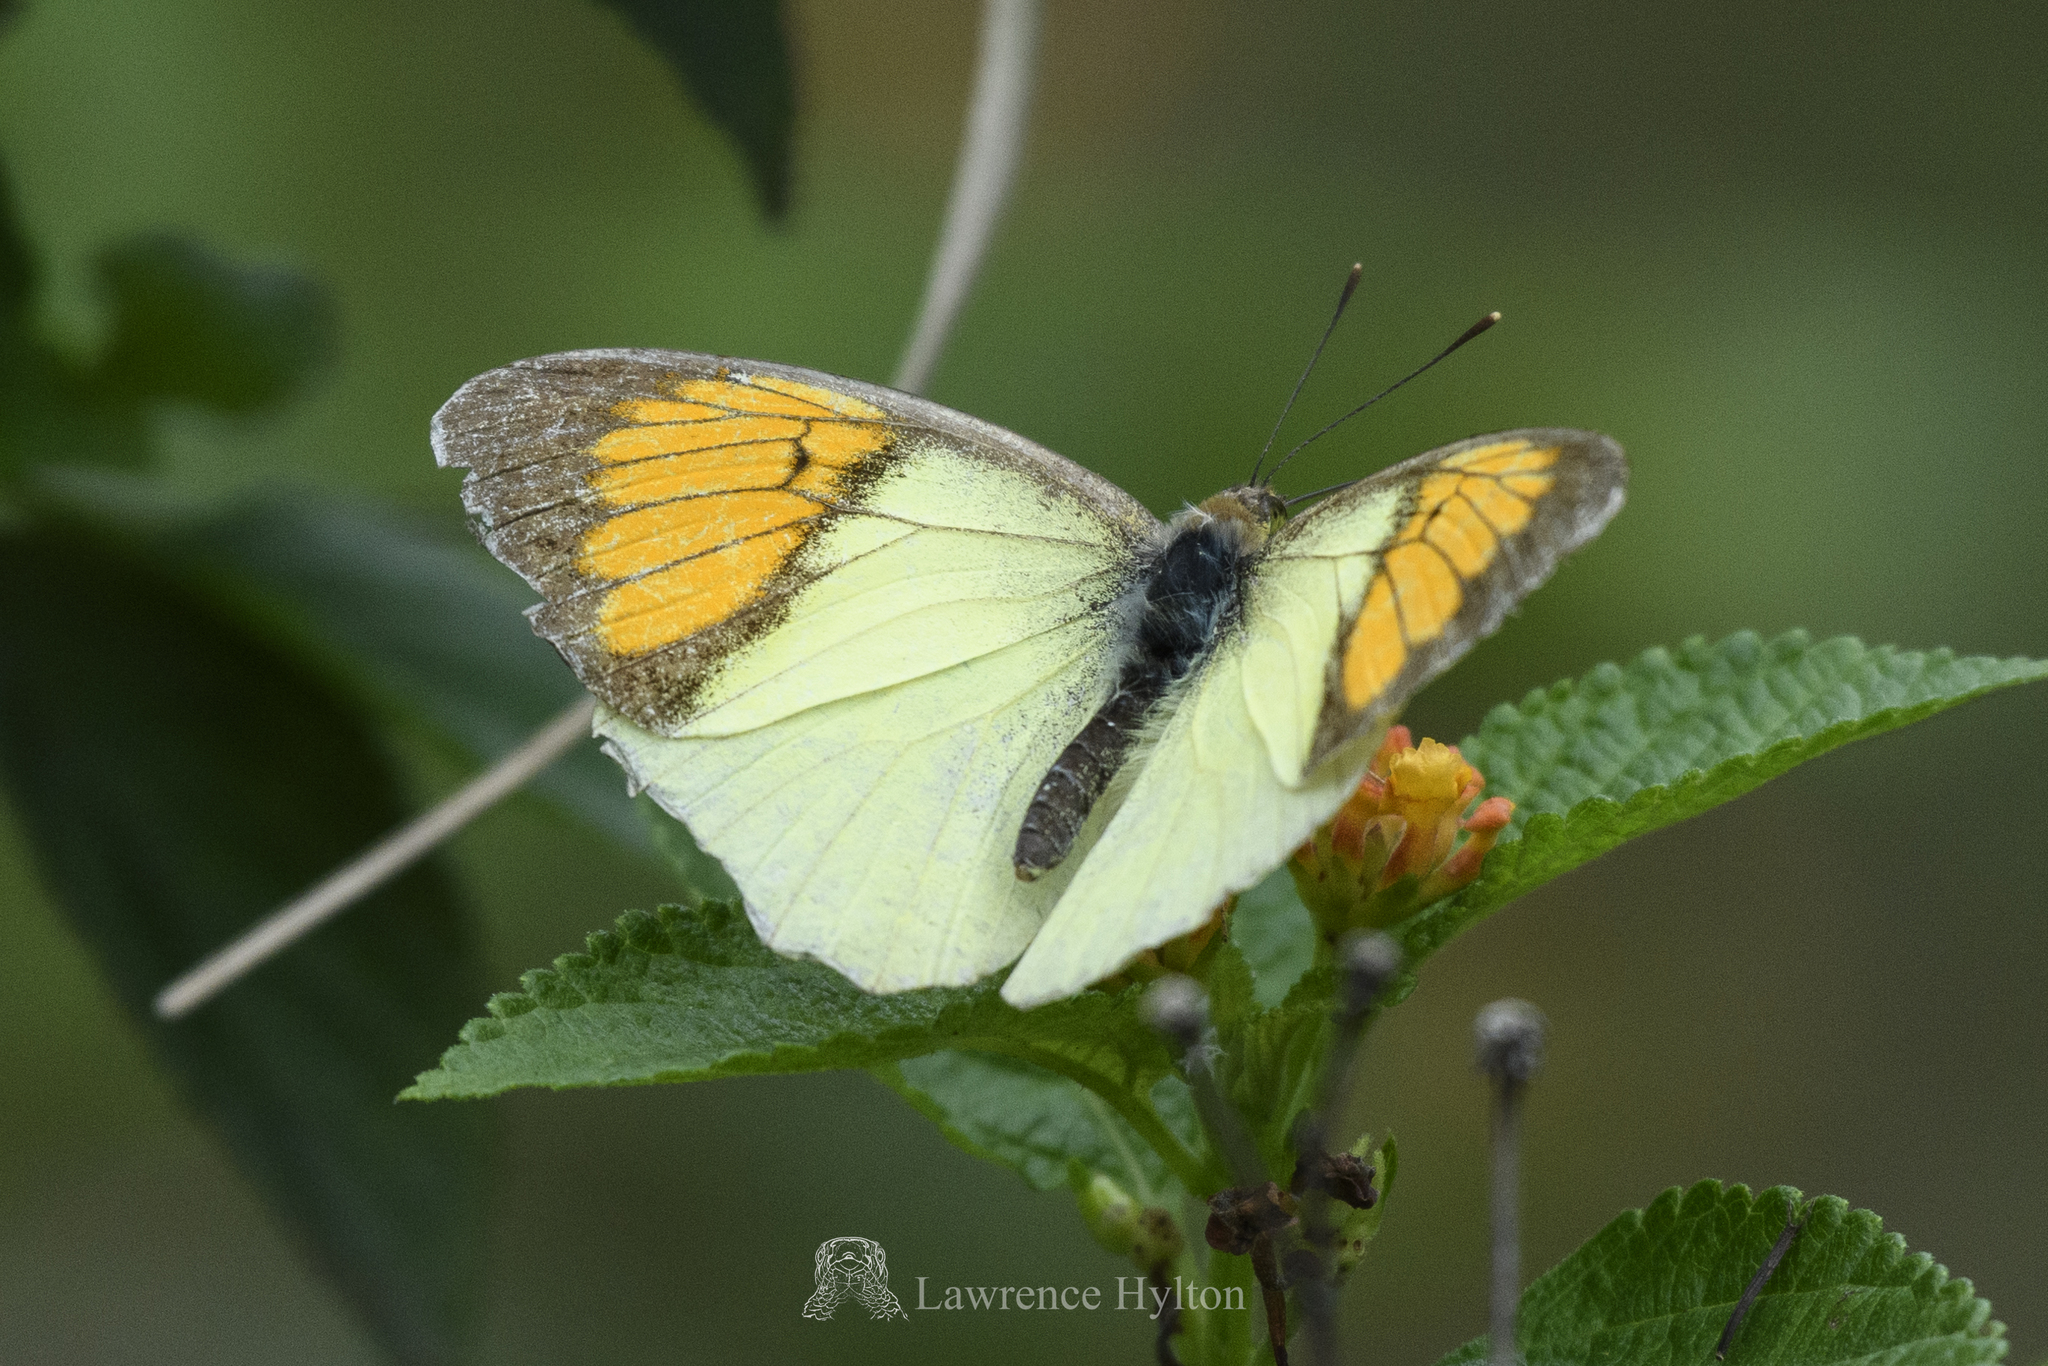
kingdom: Animalia
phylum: Arthropoda
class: Insecta
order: Lepidoptera
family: Pieridae
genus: Ixias
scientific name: Ixias pyrene
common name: Yellow orange tip
